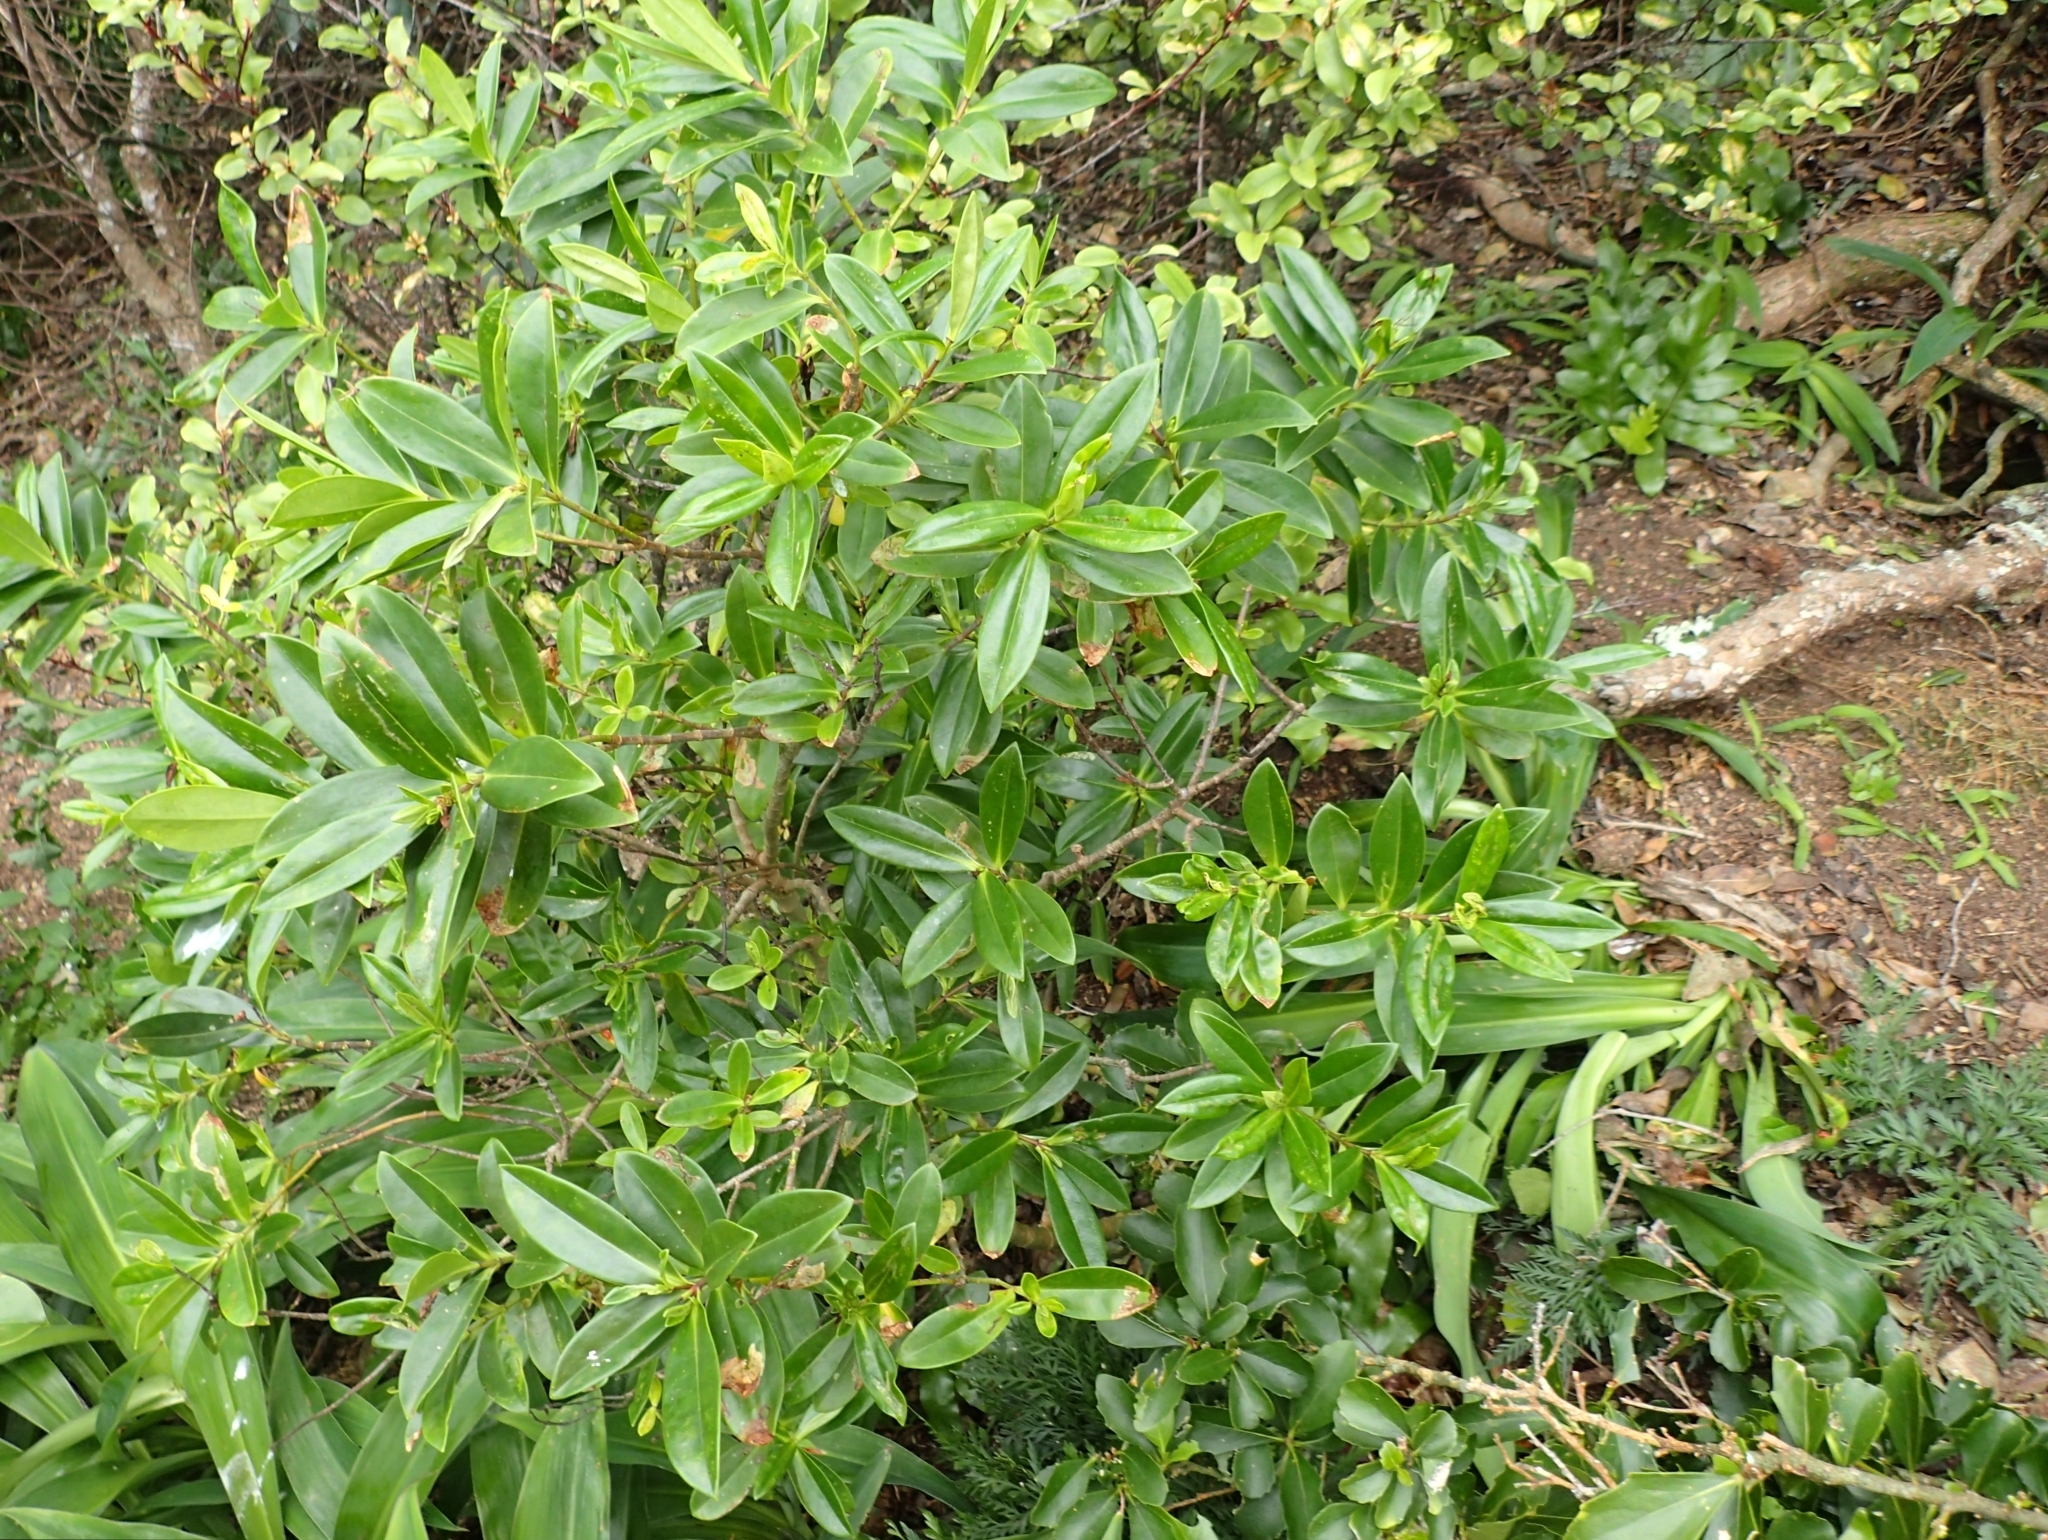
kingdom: Plantae
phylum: Tracheophyta
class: Magnoliopsida
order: Lamiales
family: Plantaginaceae
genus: Veronica
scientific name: Veronica bollonsii
